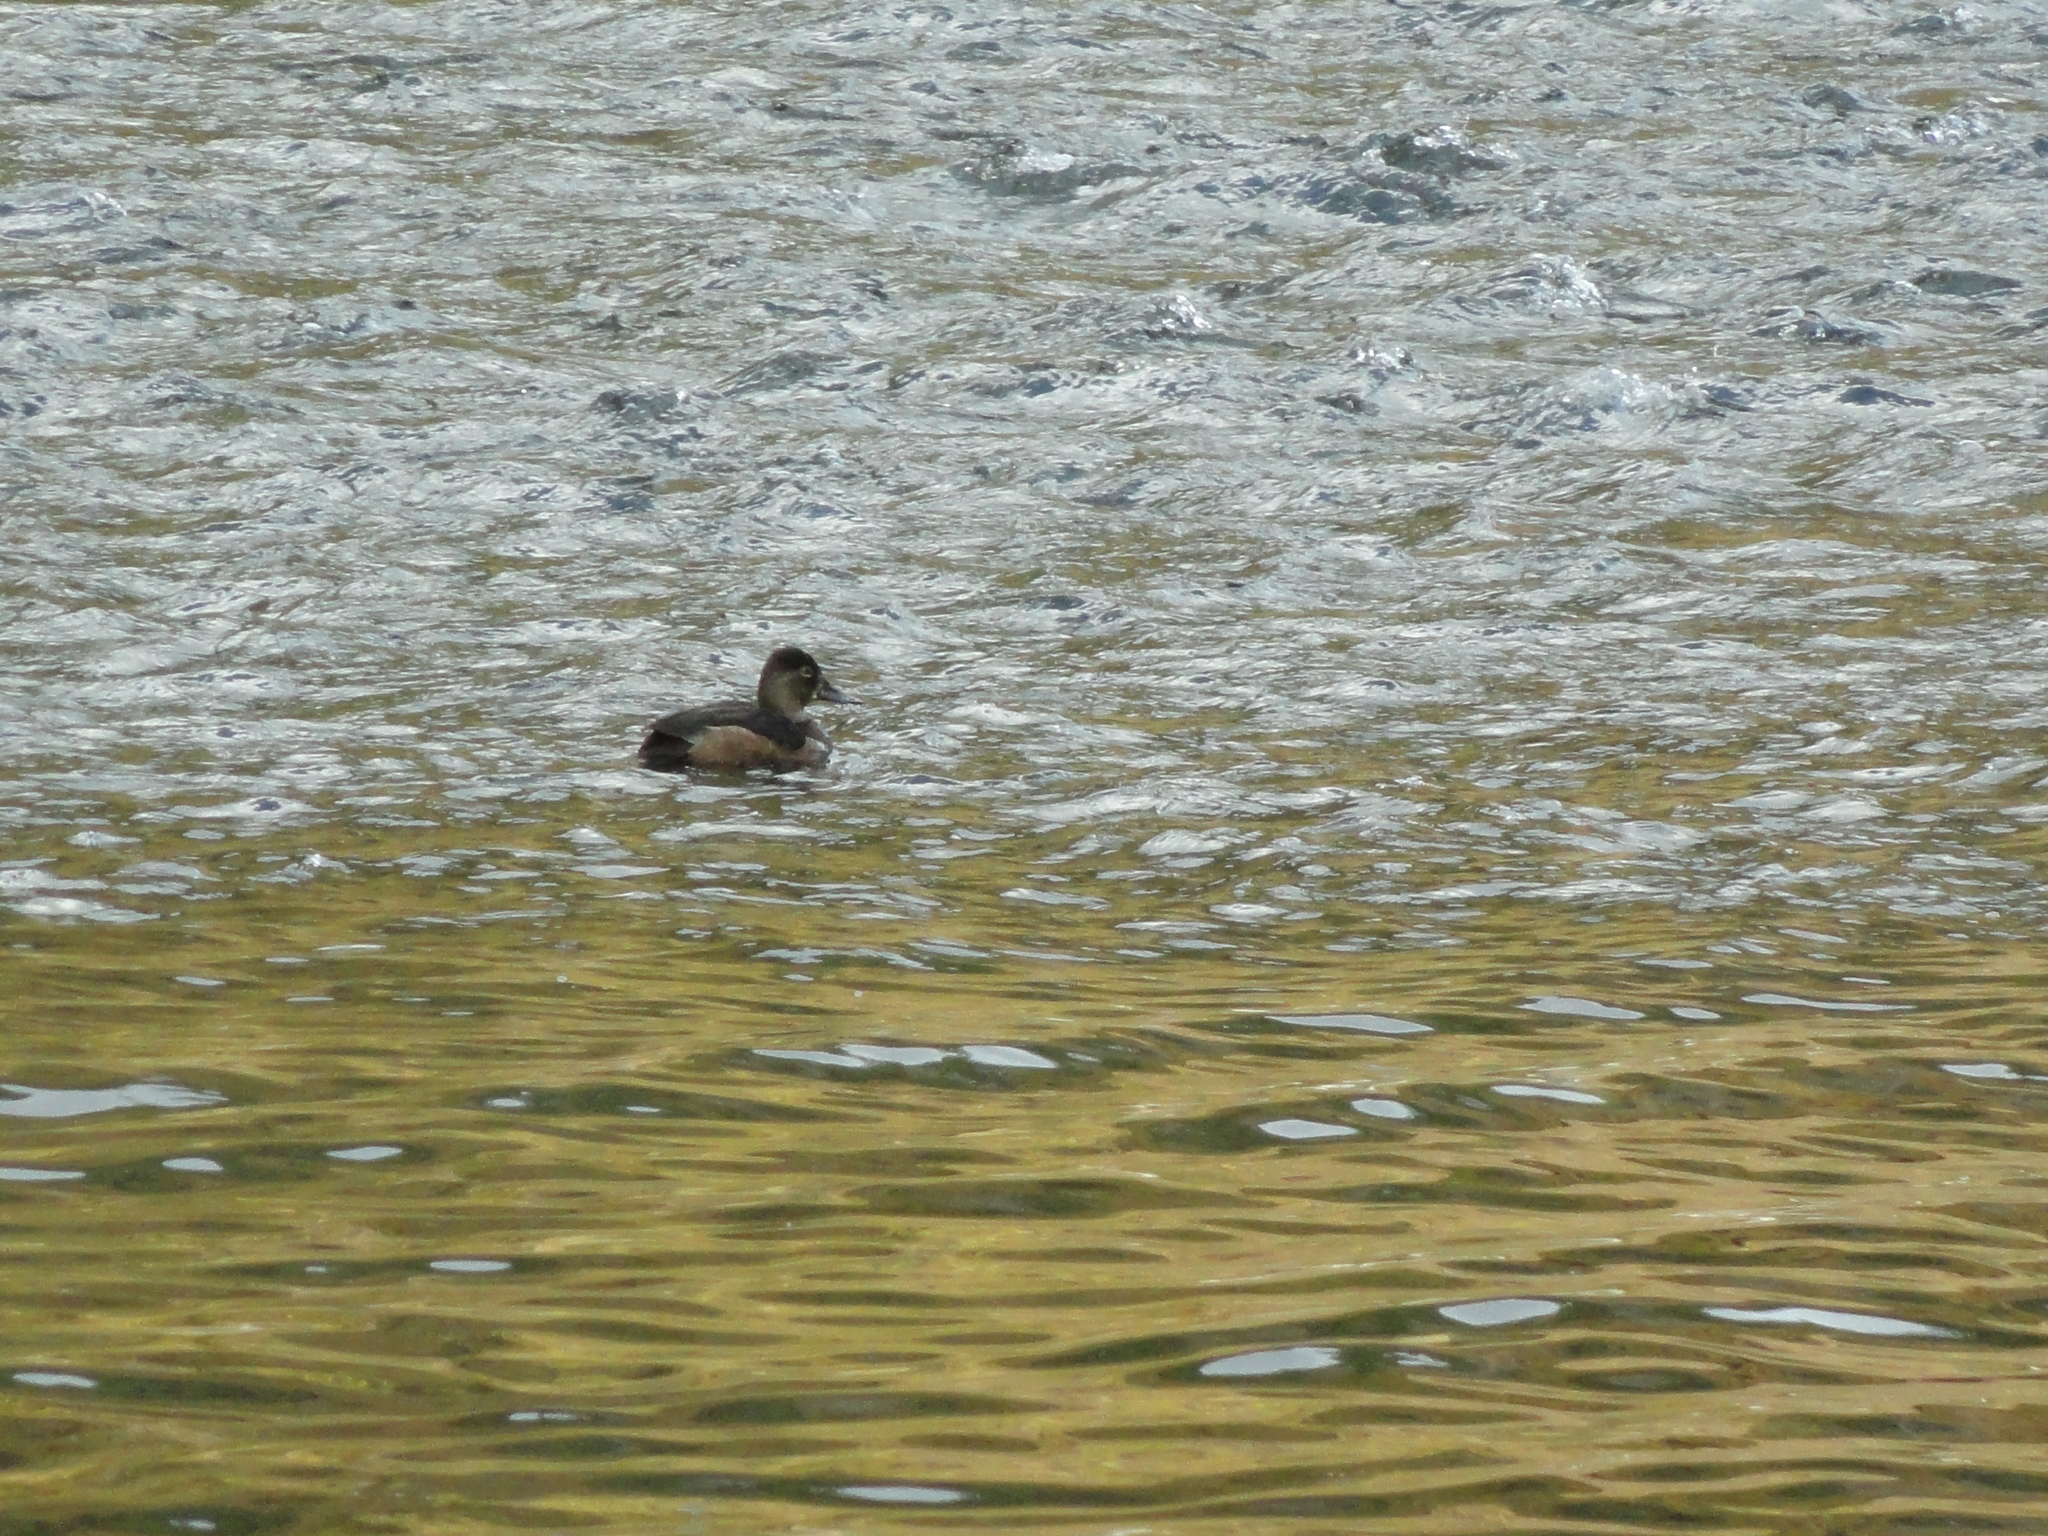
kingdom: Animalia
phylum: Chordata
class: Aves
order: Anseriformes
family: Anatidae
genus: Aythya
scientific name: Aythya collaris
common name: Ring-necked duck
